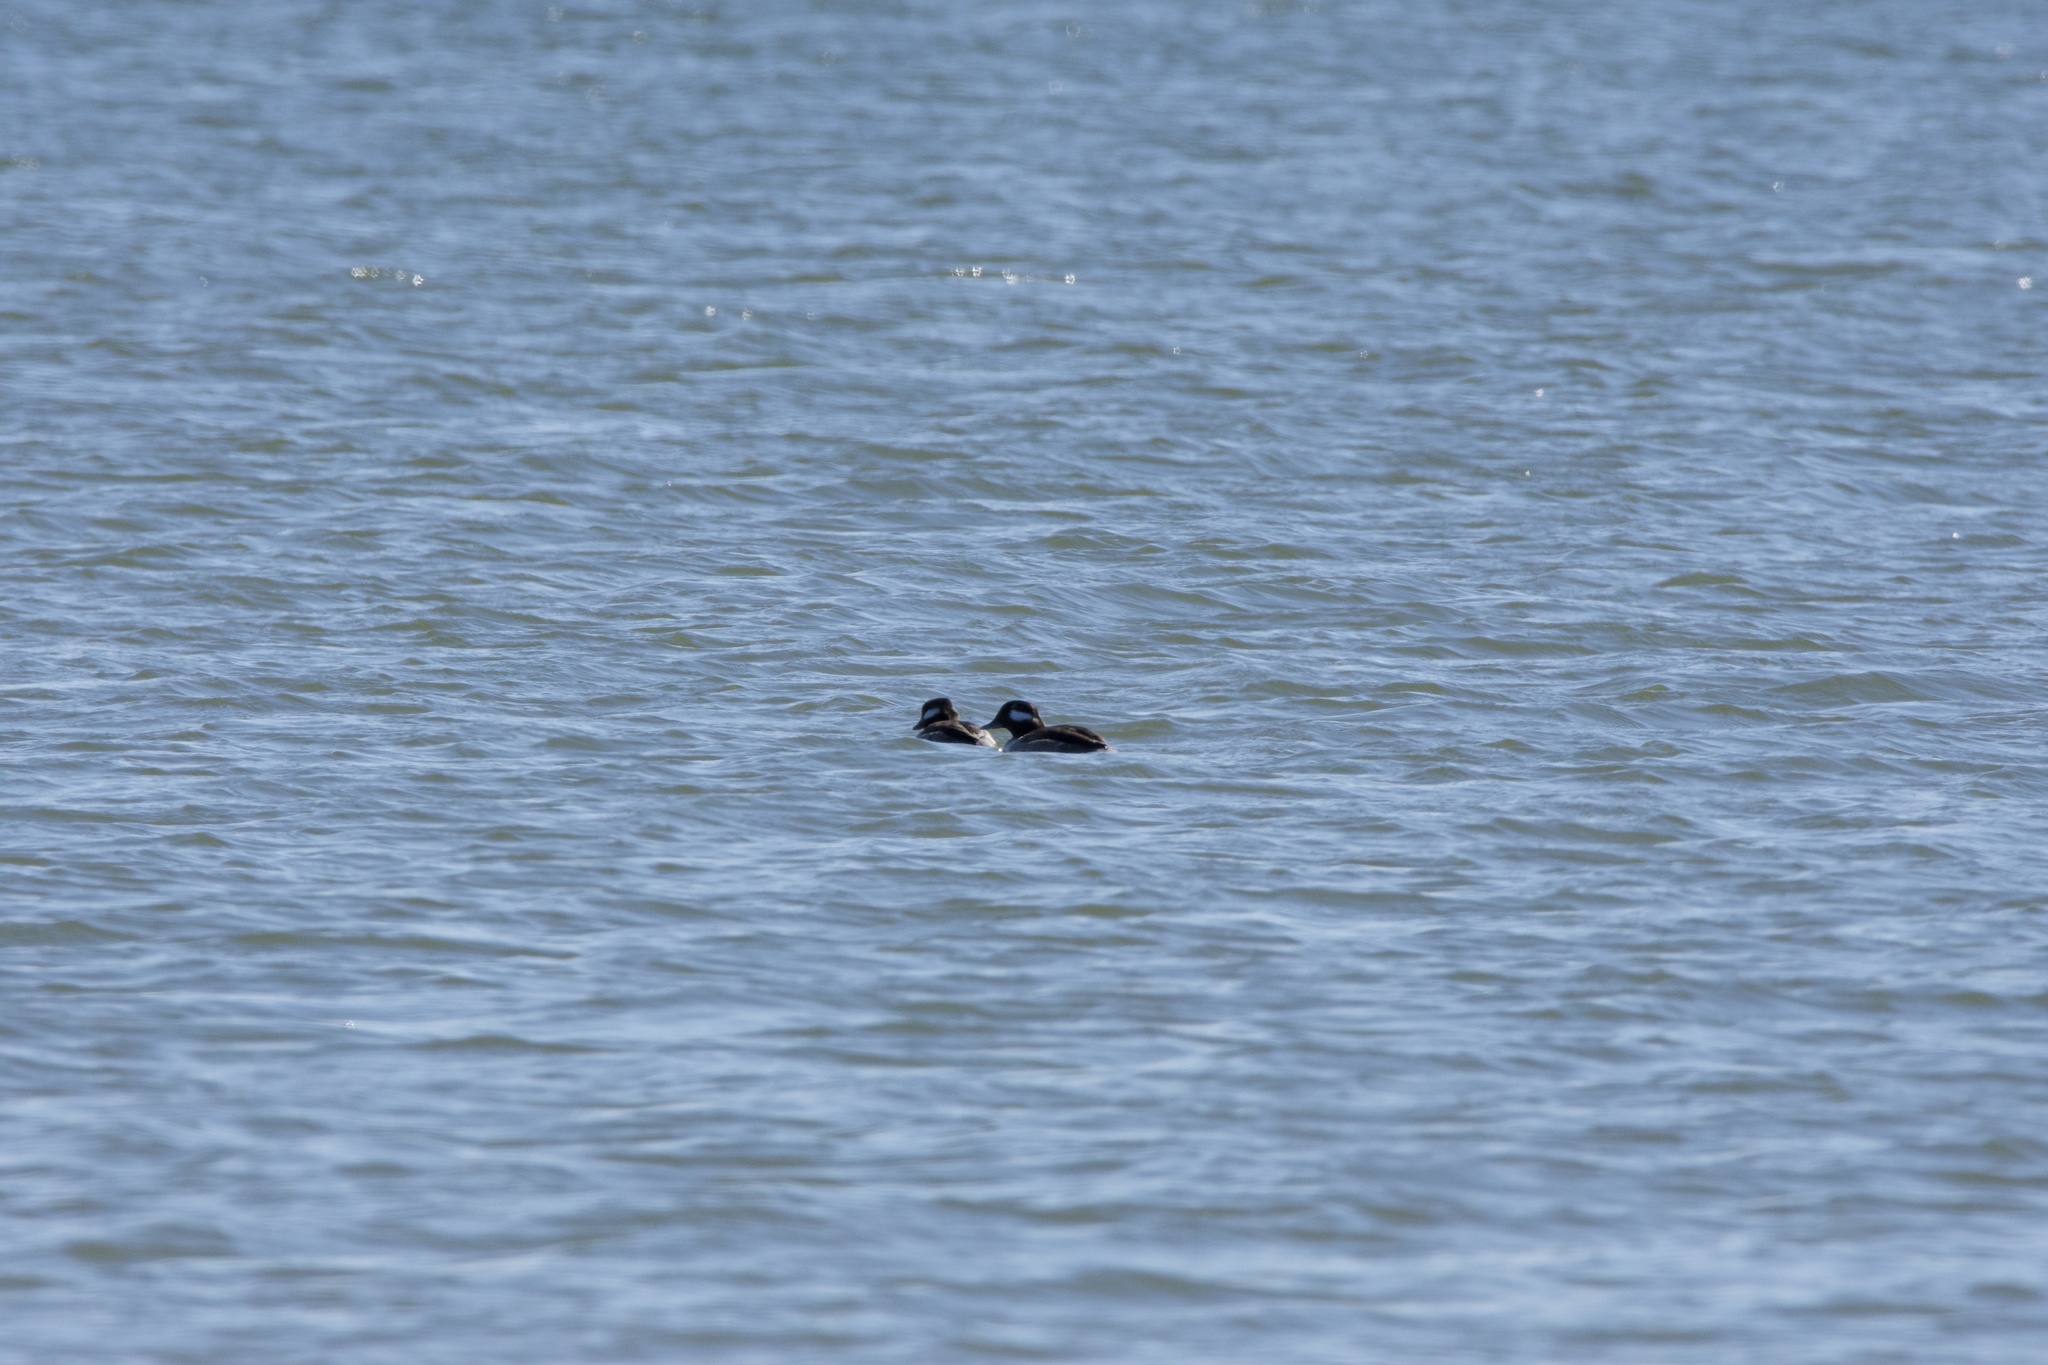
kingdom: Animalia
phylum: Chordata
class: Aves
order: Anseriformes
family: Anatidae
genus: Bucephala
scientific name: Bucephala albeola
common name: Bufflehead
